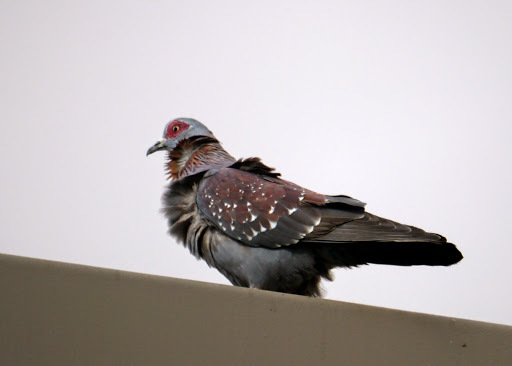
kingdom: Animalia
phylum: Chordata
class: Aves
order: Columbiformes
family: Columbidae
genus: Columba
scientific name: Columba guinea
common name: Speckled pigeon
